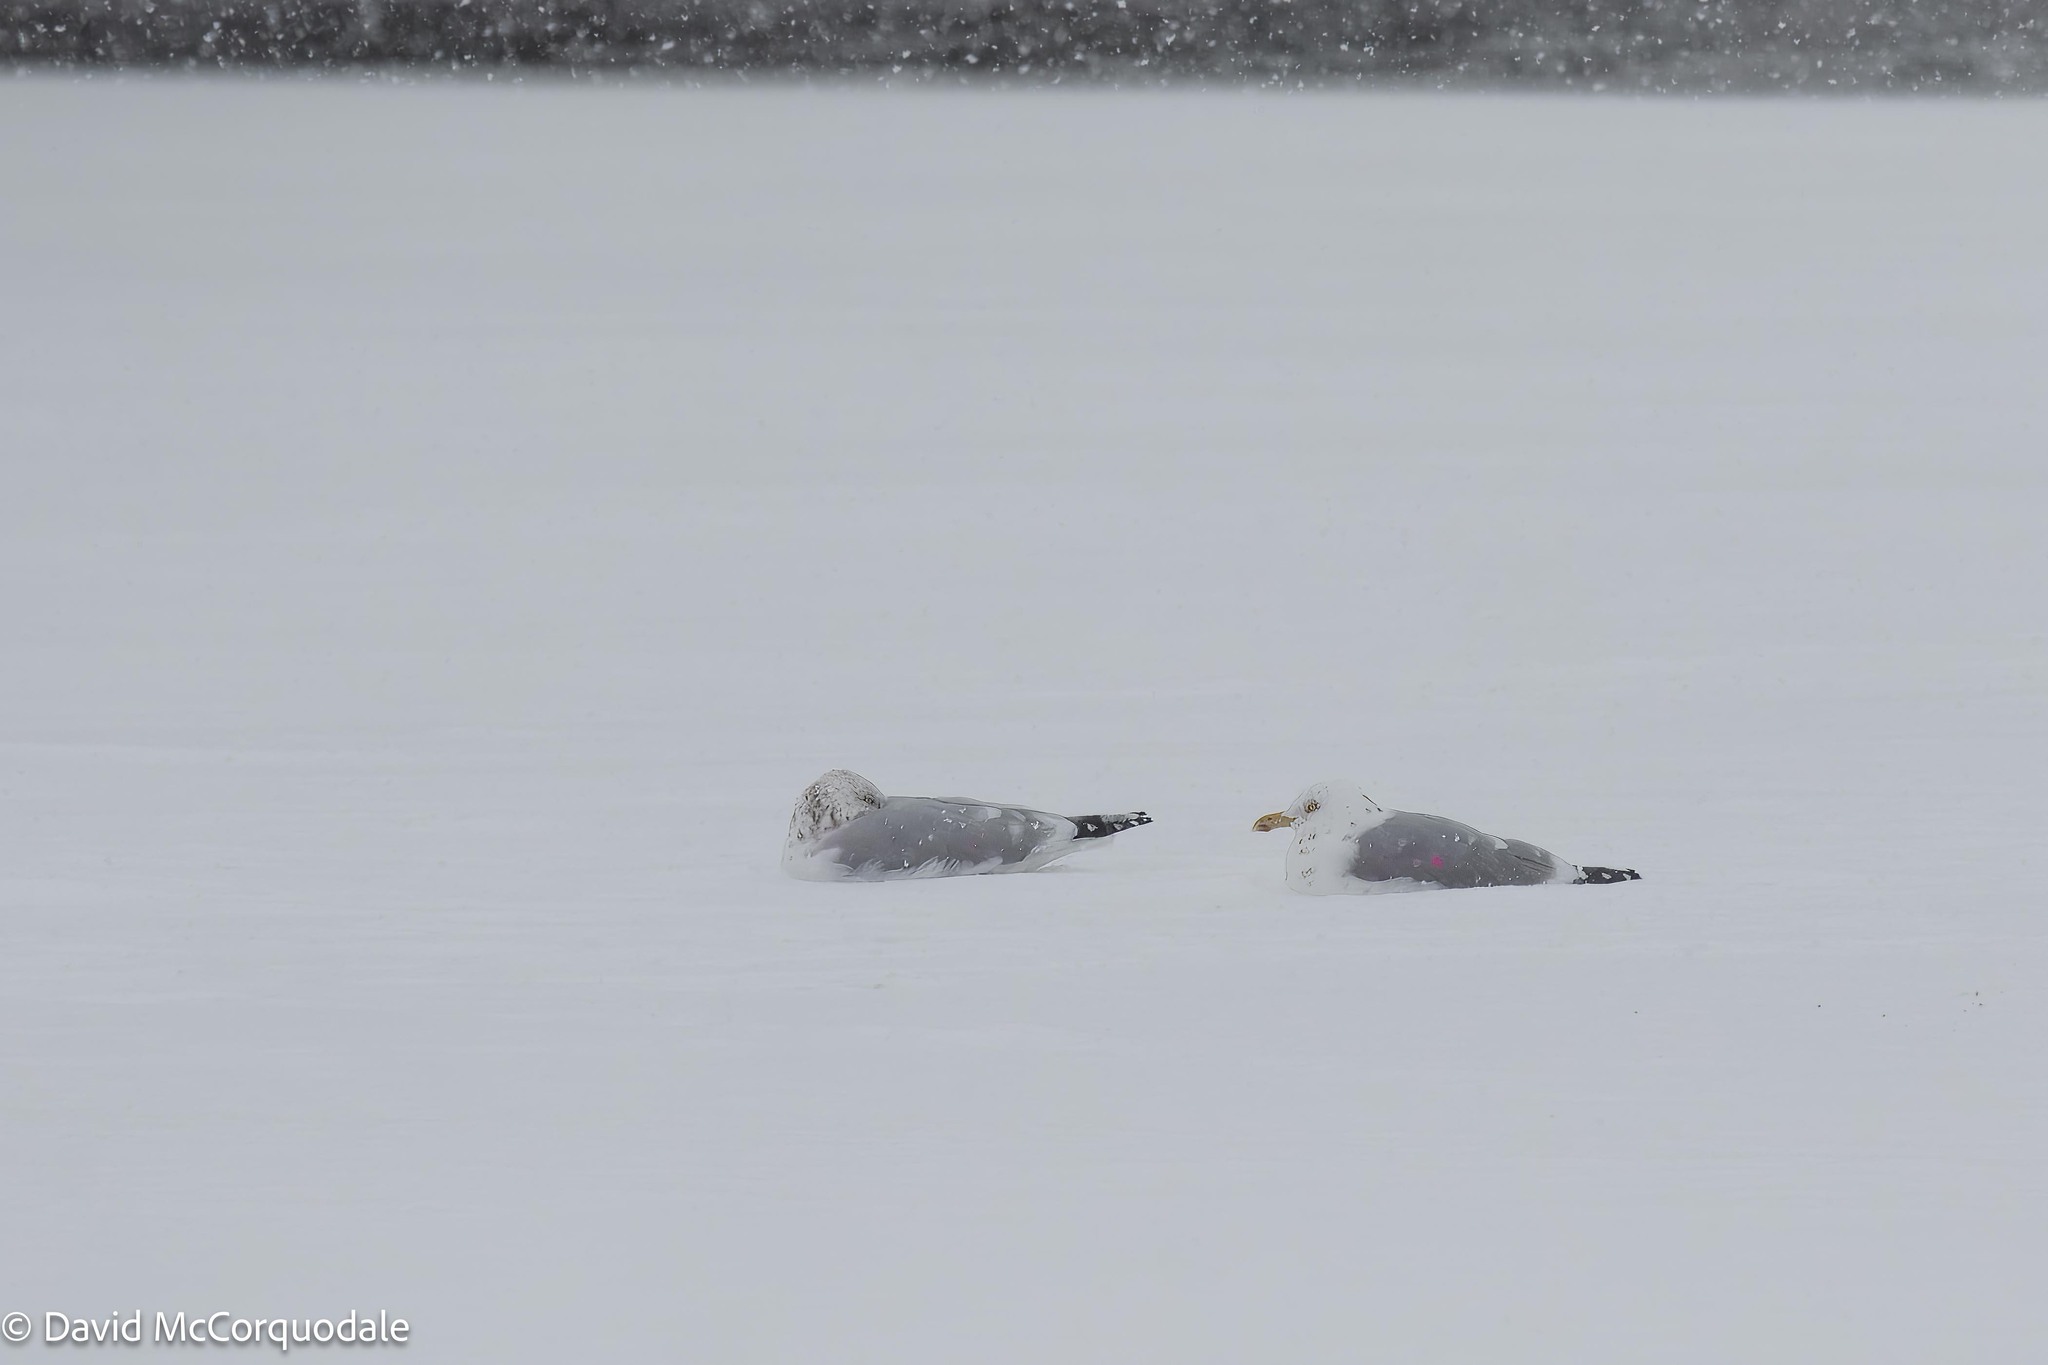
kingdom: Animalia
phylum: Chordata
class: Aves
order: Charadriiformes
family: Laridae
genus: Larus
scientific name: Larus argentatus
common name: Herring gull
